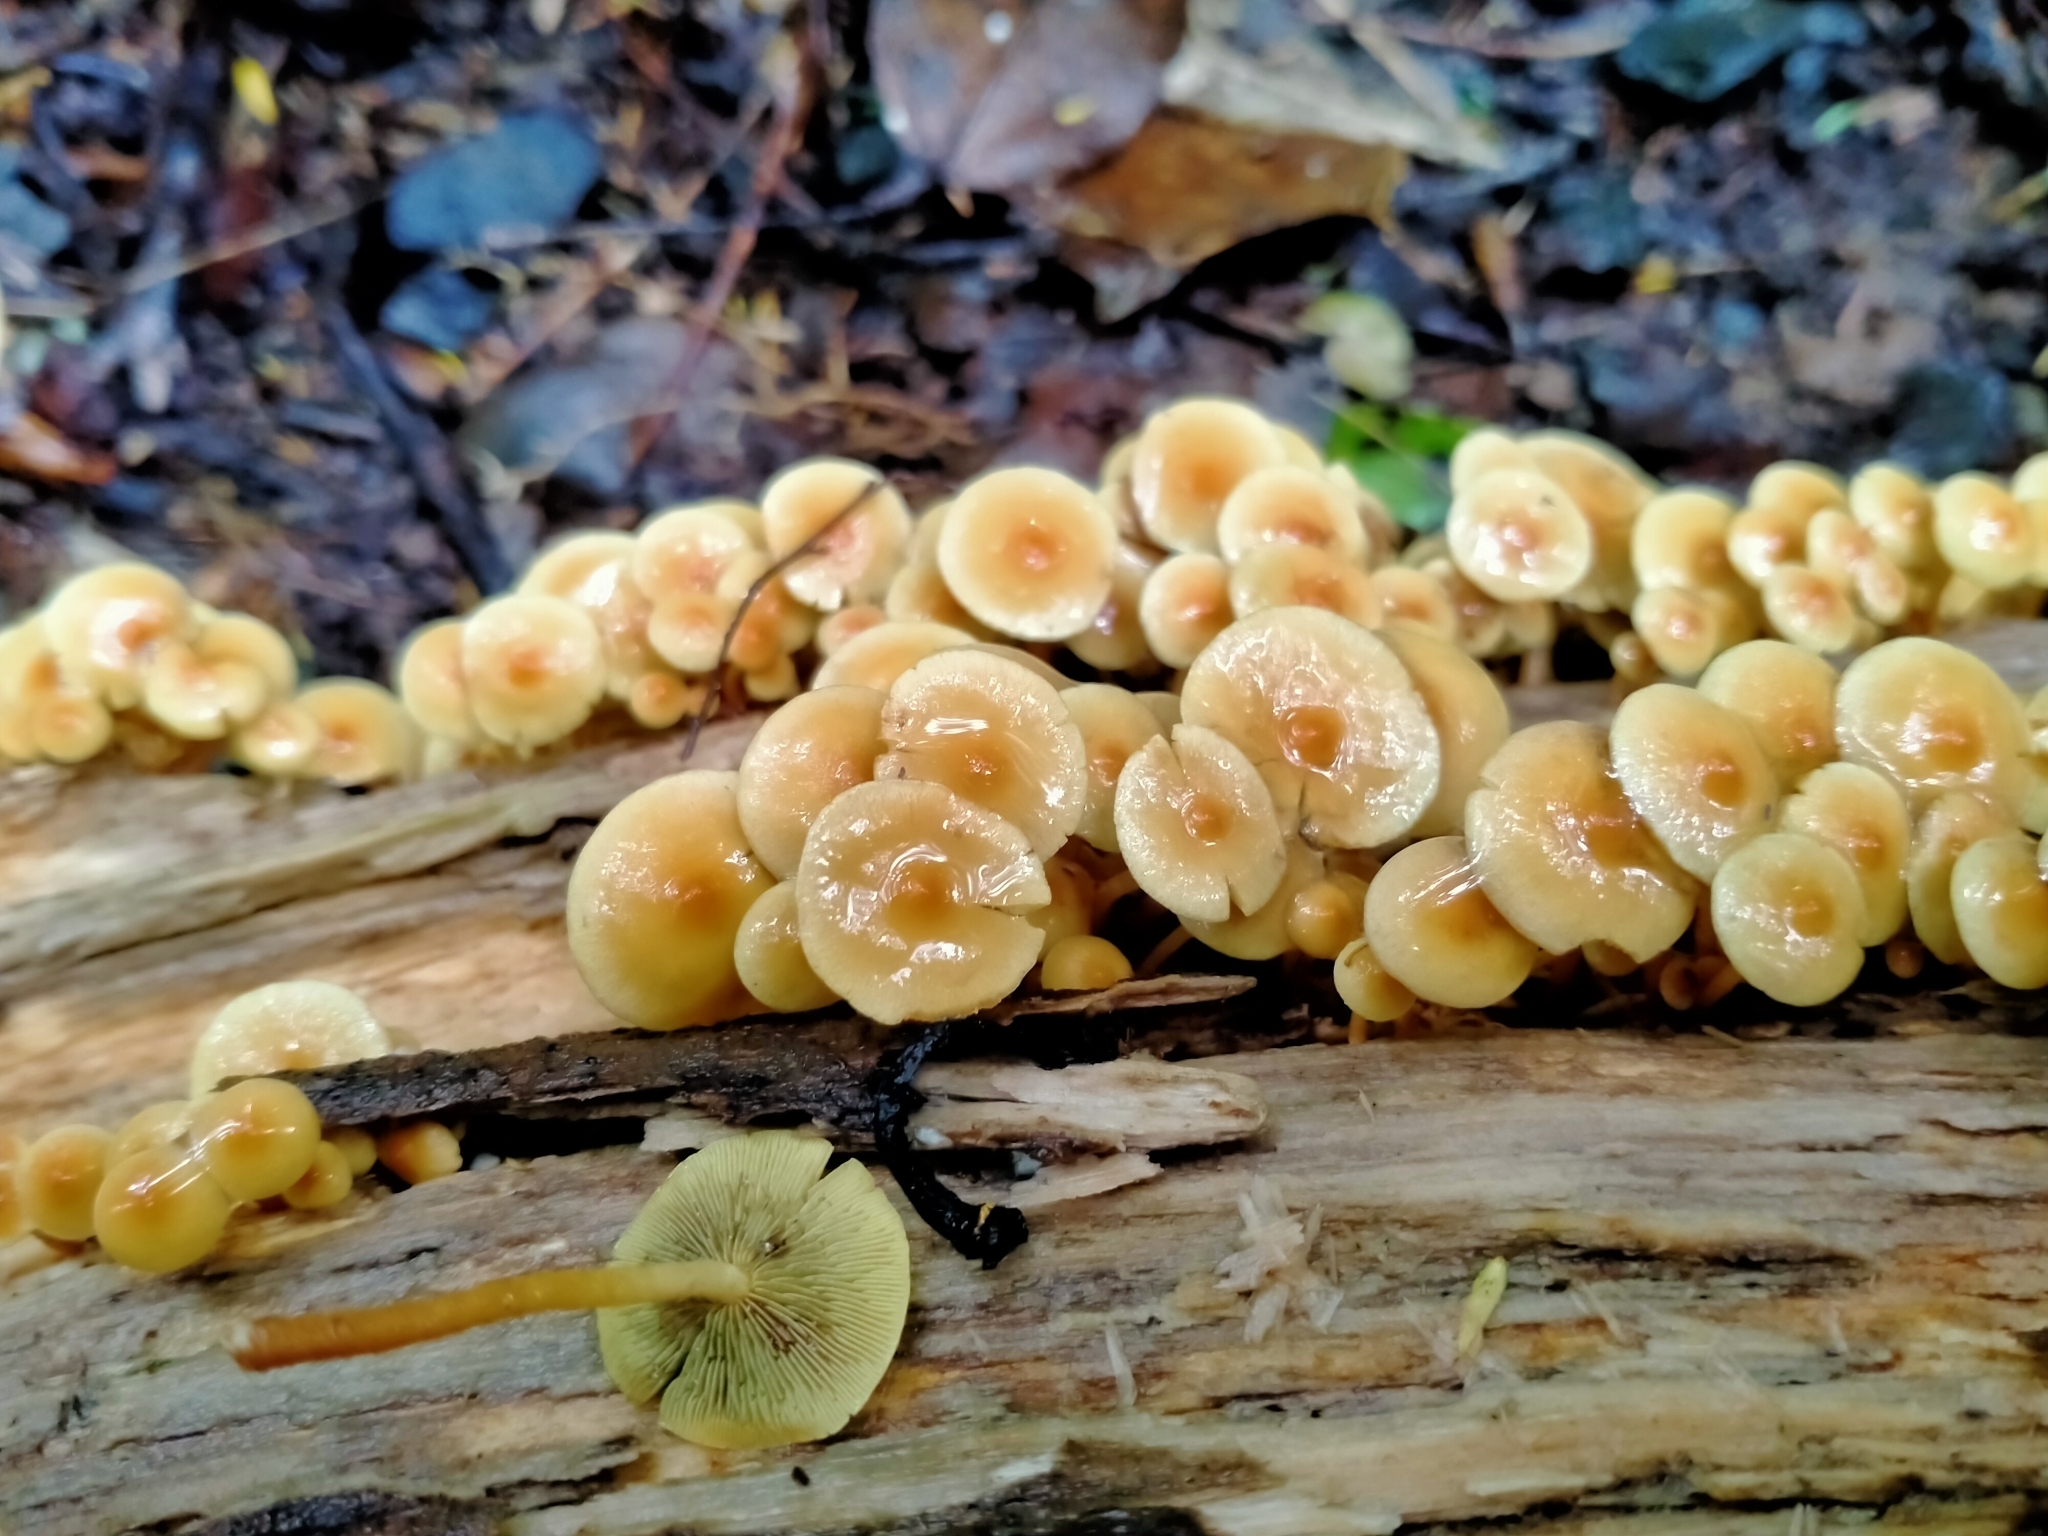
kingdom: Fungi
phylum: Basidiomycota
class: Agaricomycetes
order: Agaricales
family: Strophariaceae
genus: Hypholoma
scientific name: Hypholoma acutum
